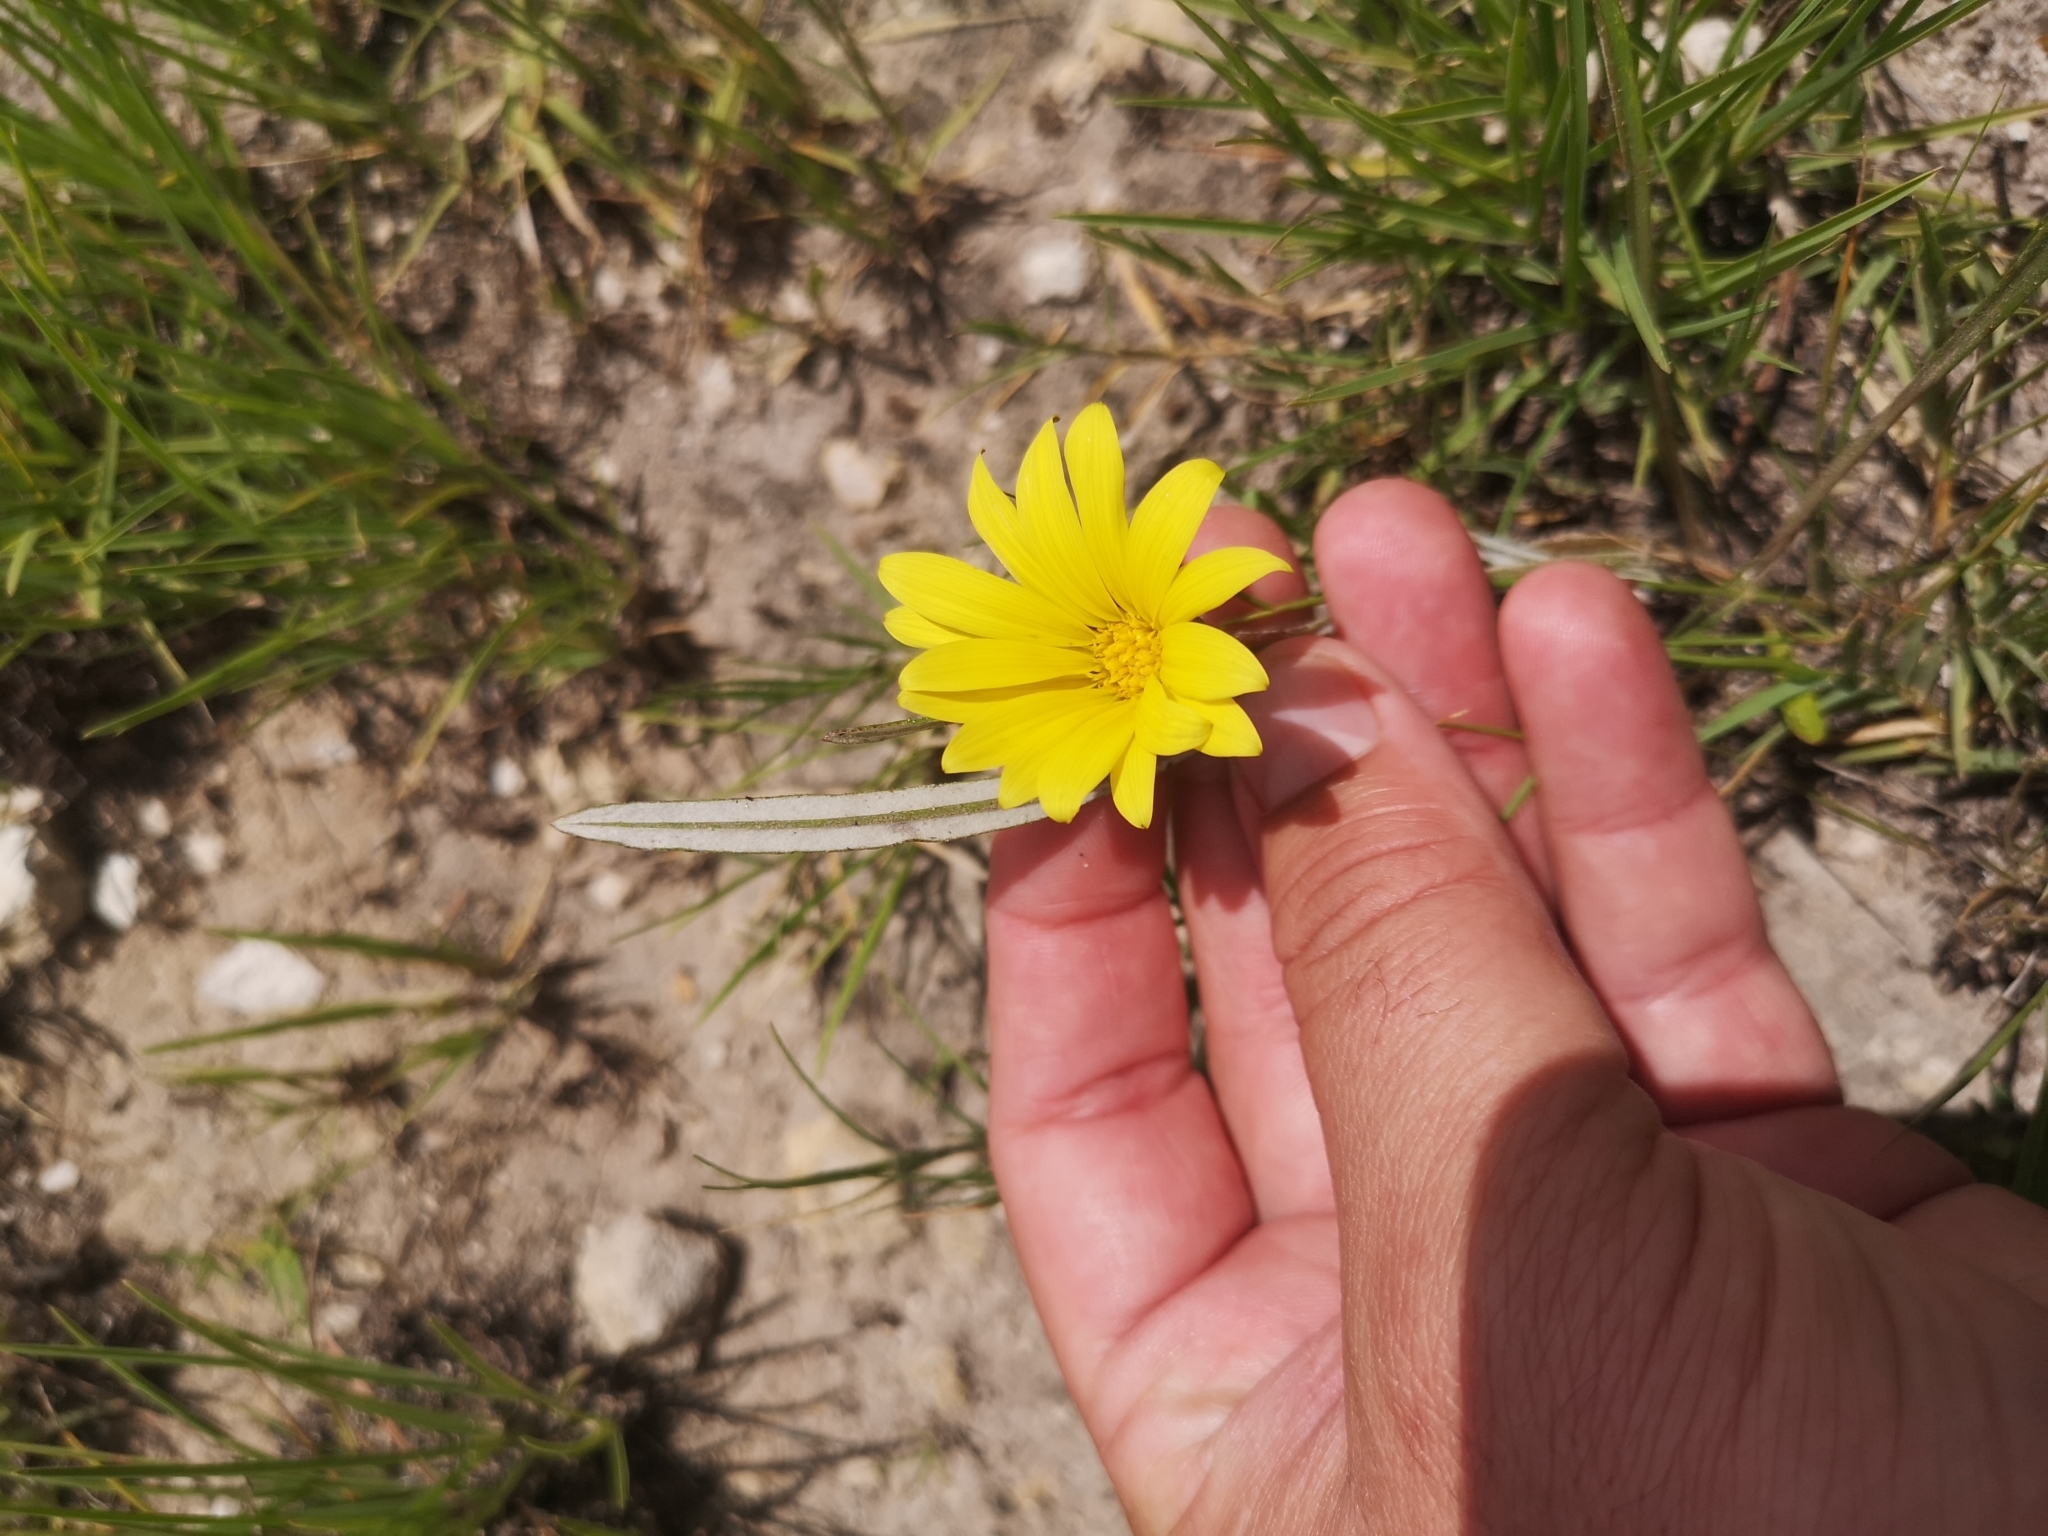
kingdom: Plantae
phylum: Tracheophyta
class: Magnoliopsida
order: Asterales
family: Asteraceae
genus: Gazania
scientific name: Gazania krebsiana
